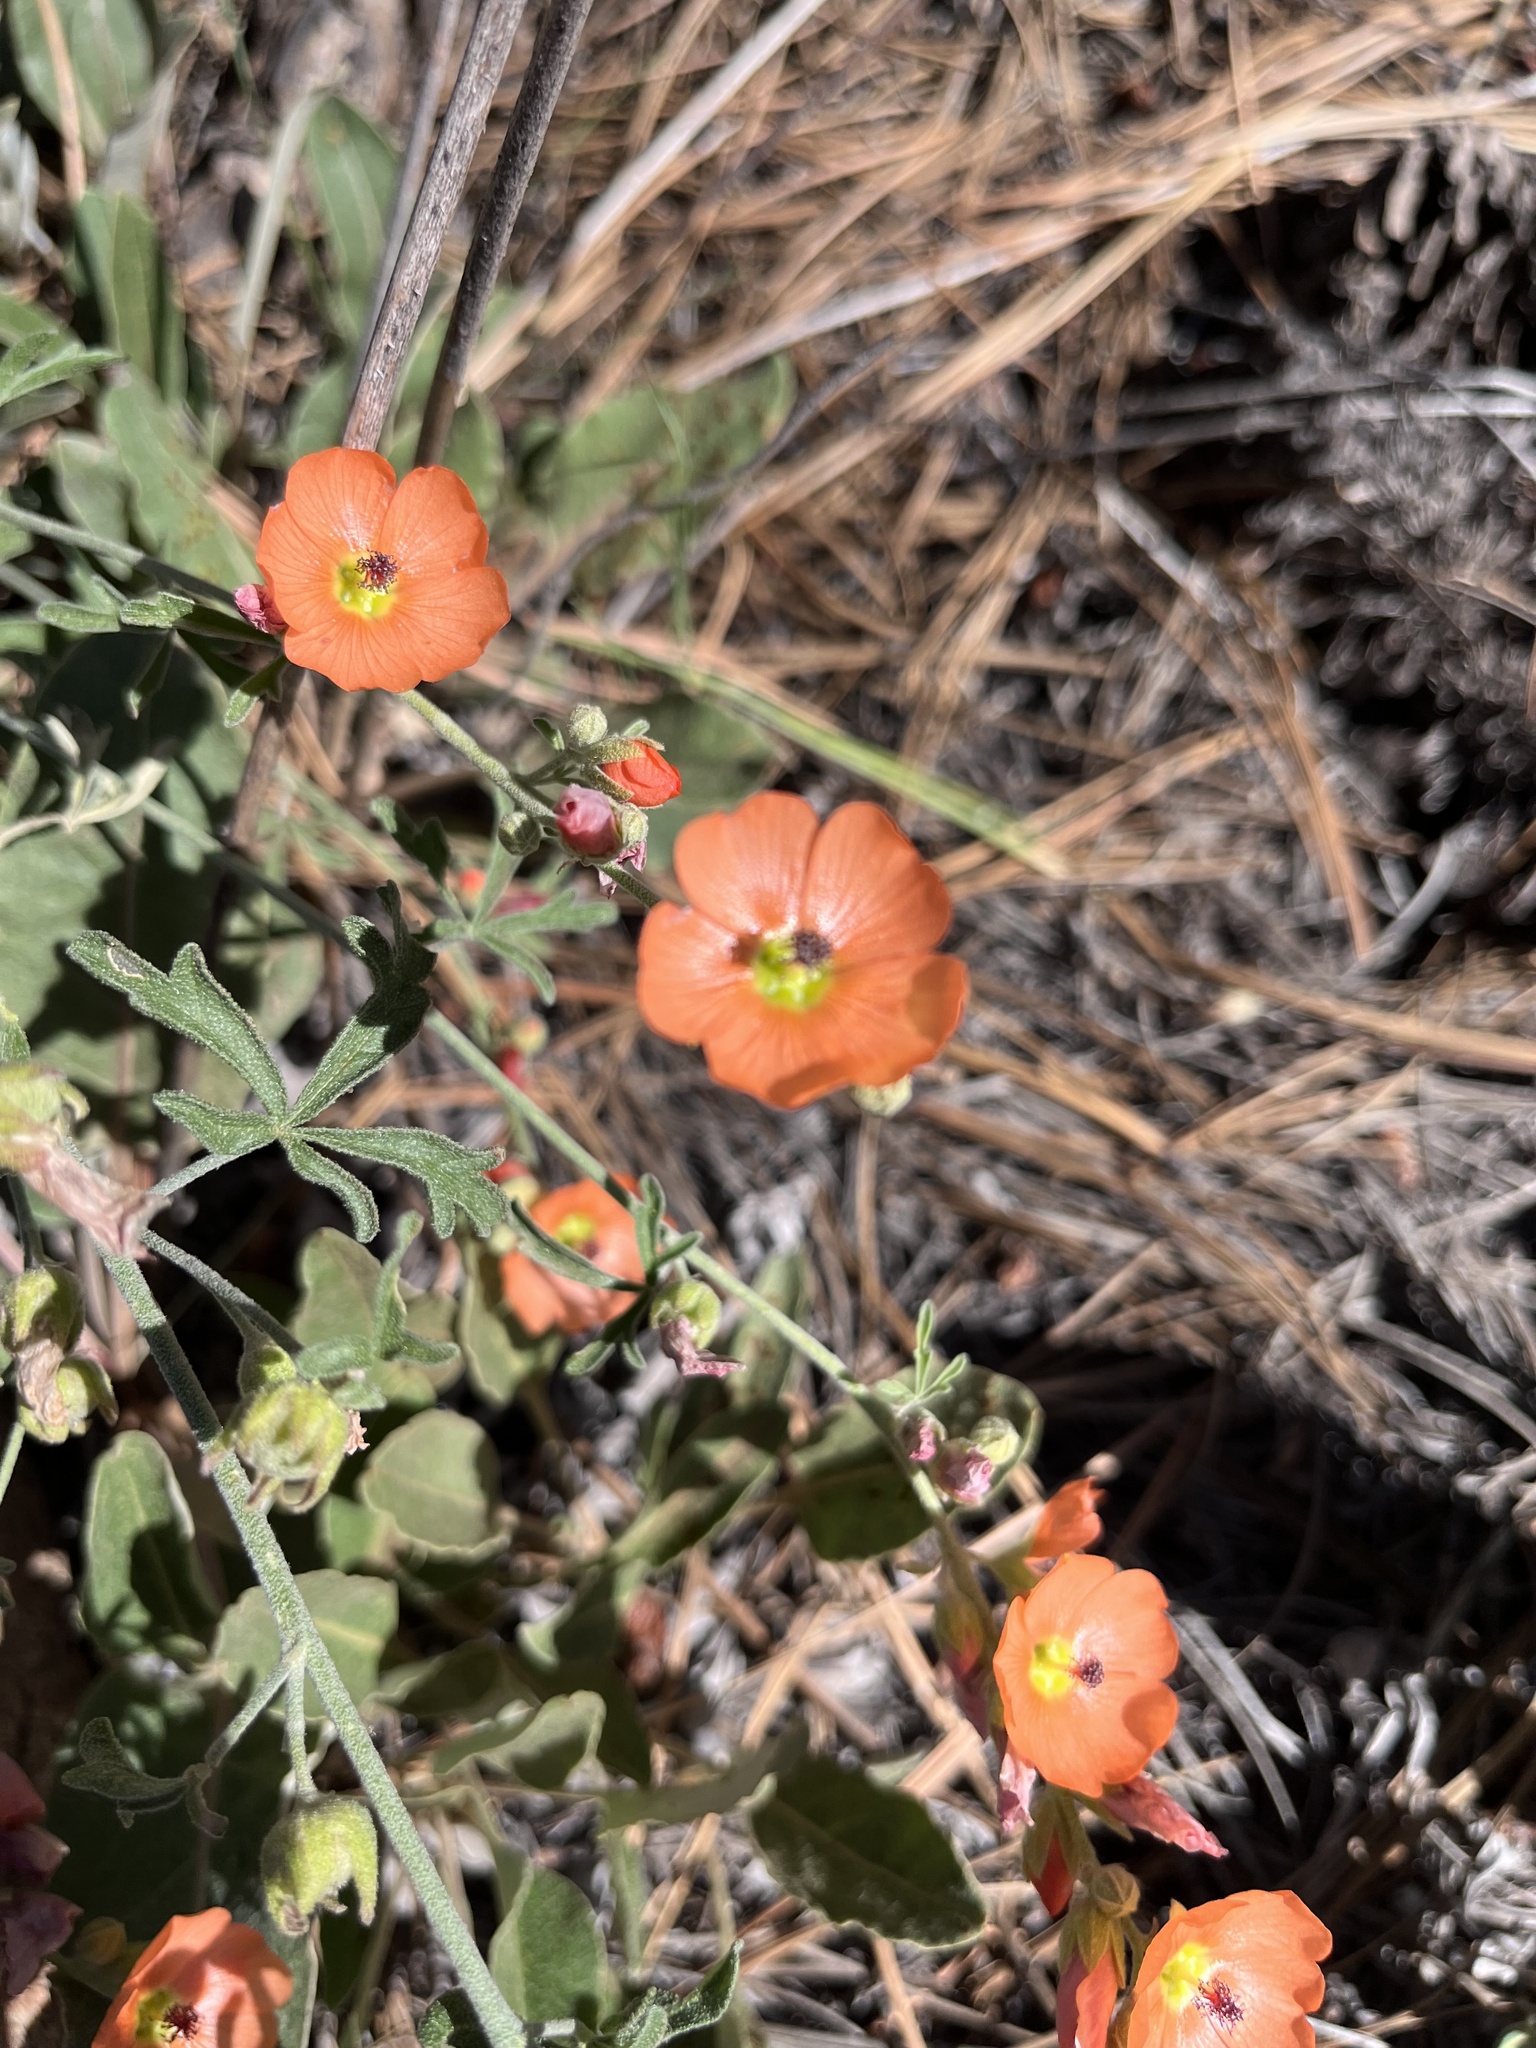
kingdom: Plantae
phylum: Tracheophyta
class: Magnoliopsida
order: Malvales
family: Malvaceae
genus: Sphaeralcea
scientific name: Sphaeralcea digitata
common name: Juniper-gobe-mallow
